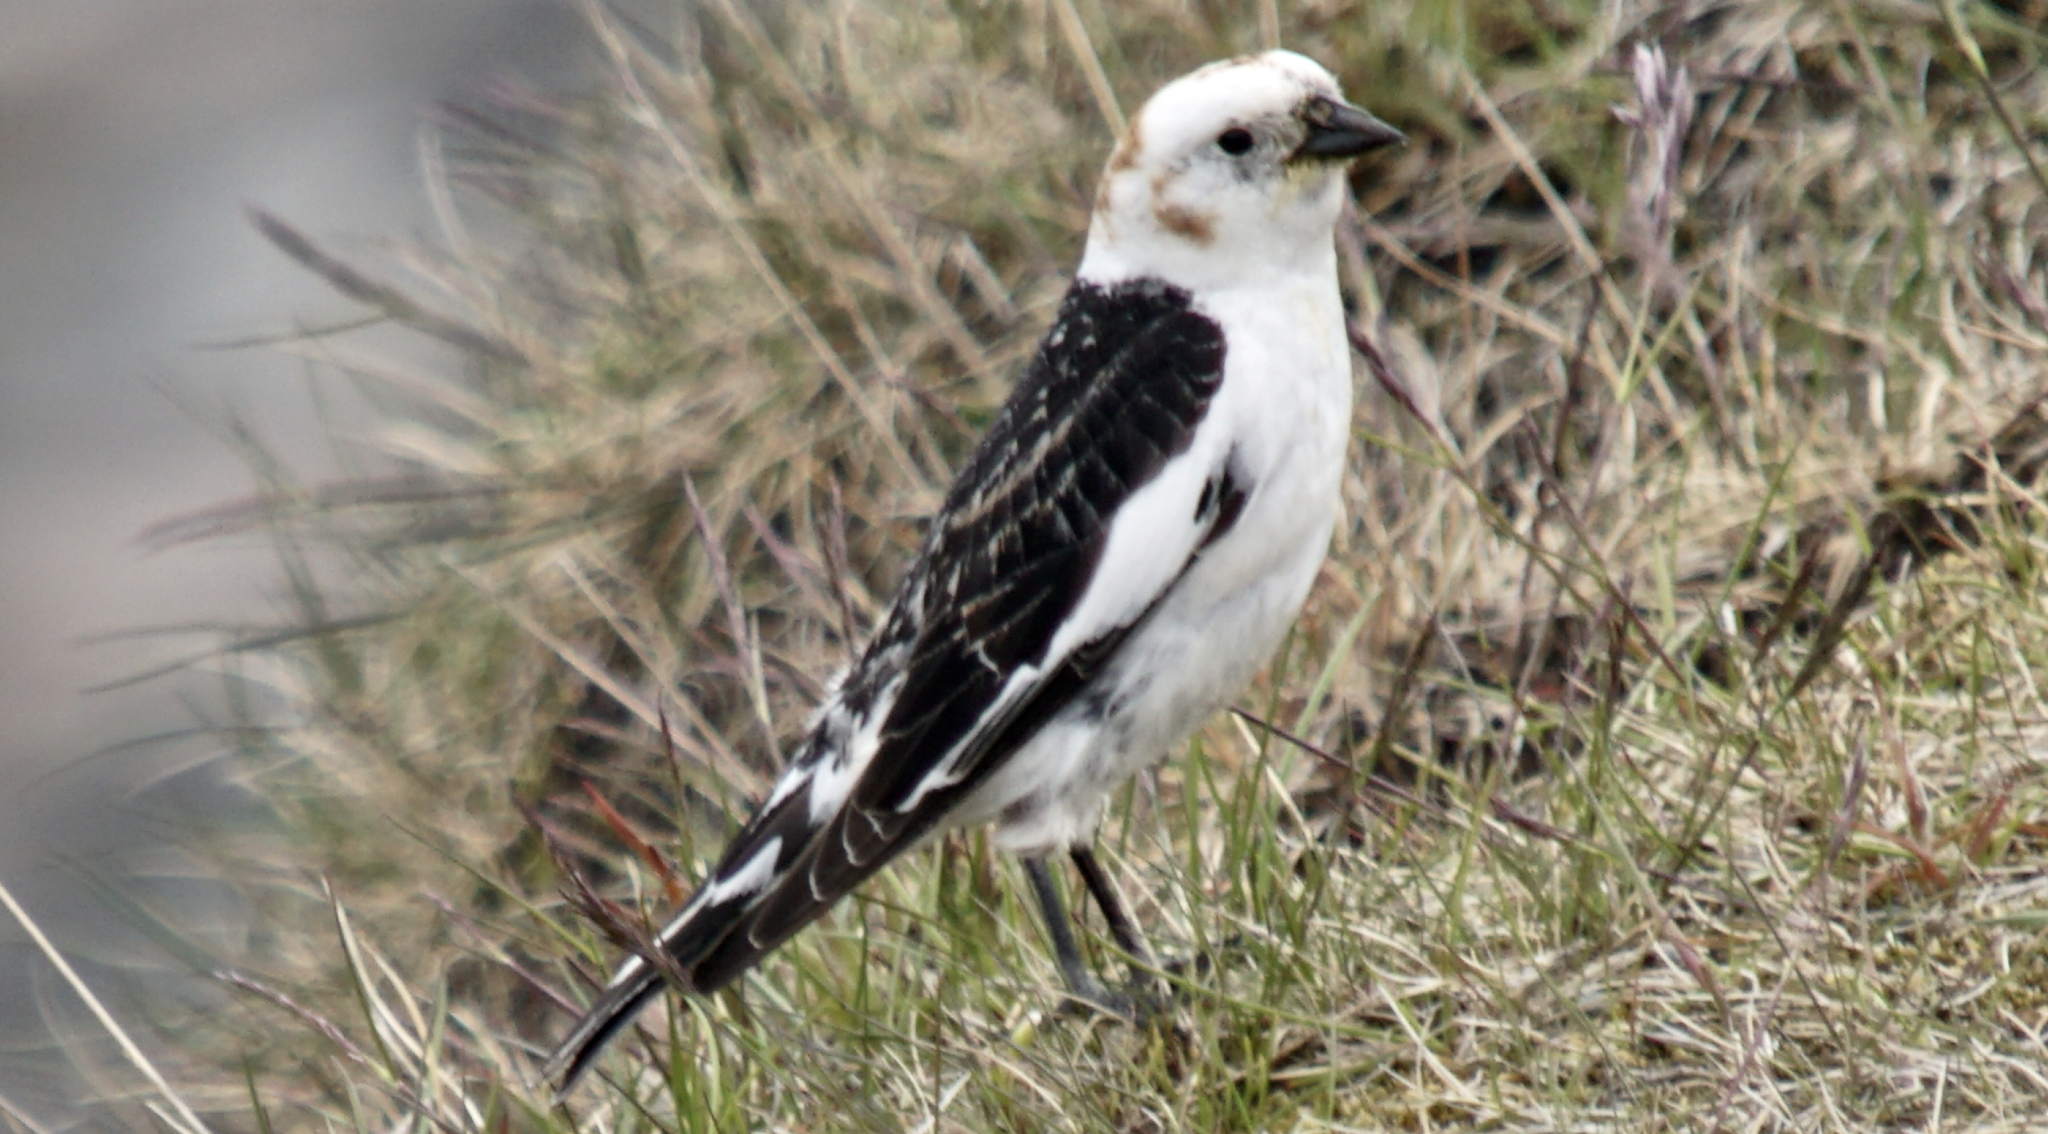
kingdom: Animalia
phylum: Chordata
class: Aves
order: Passeriformes
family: Calcariidae
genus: Plectrophenax
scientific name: Plectrophenax nivalis
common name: Snow bunting
